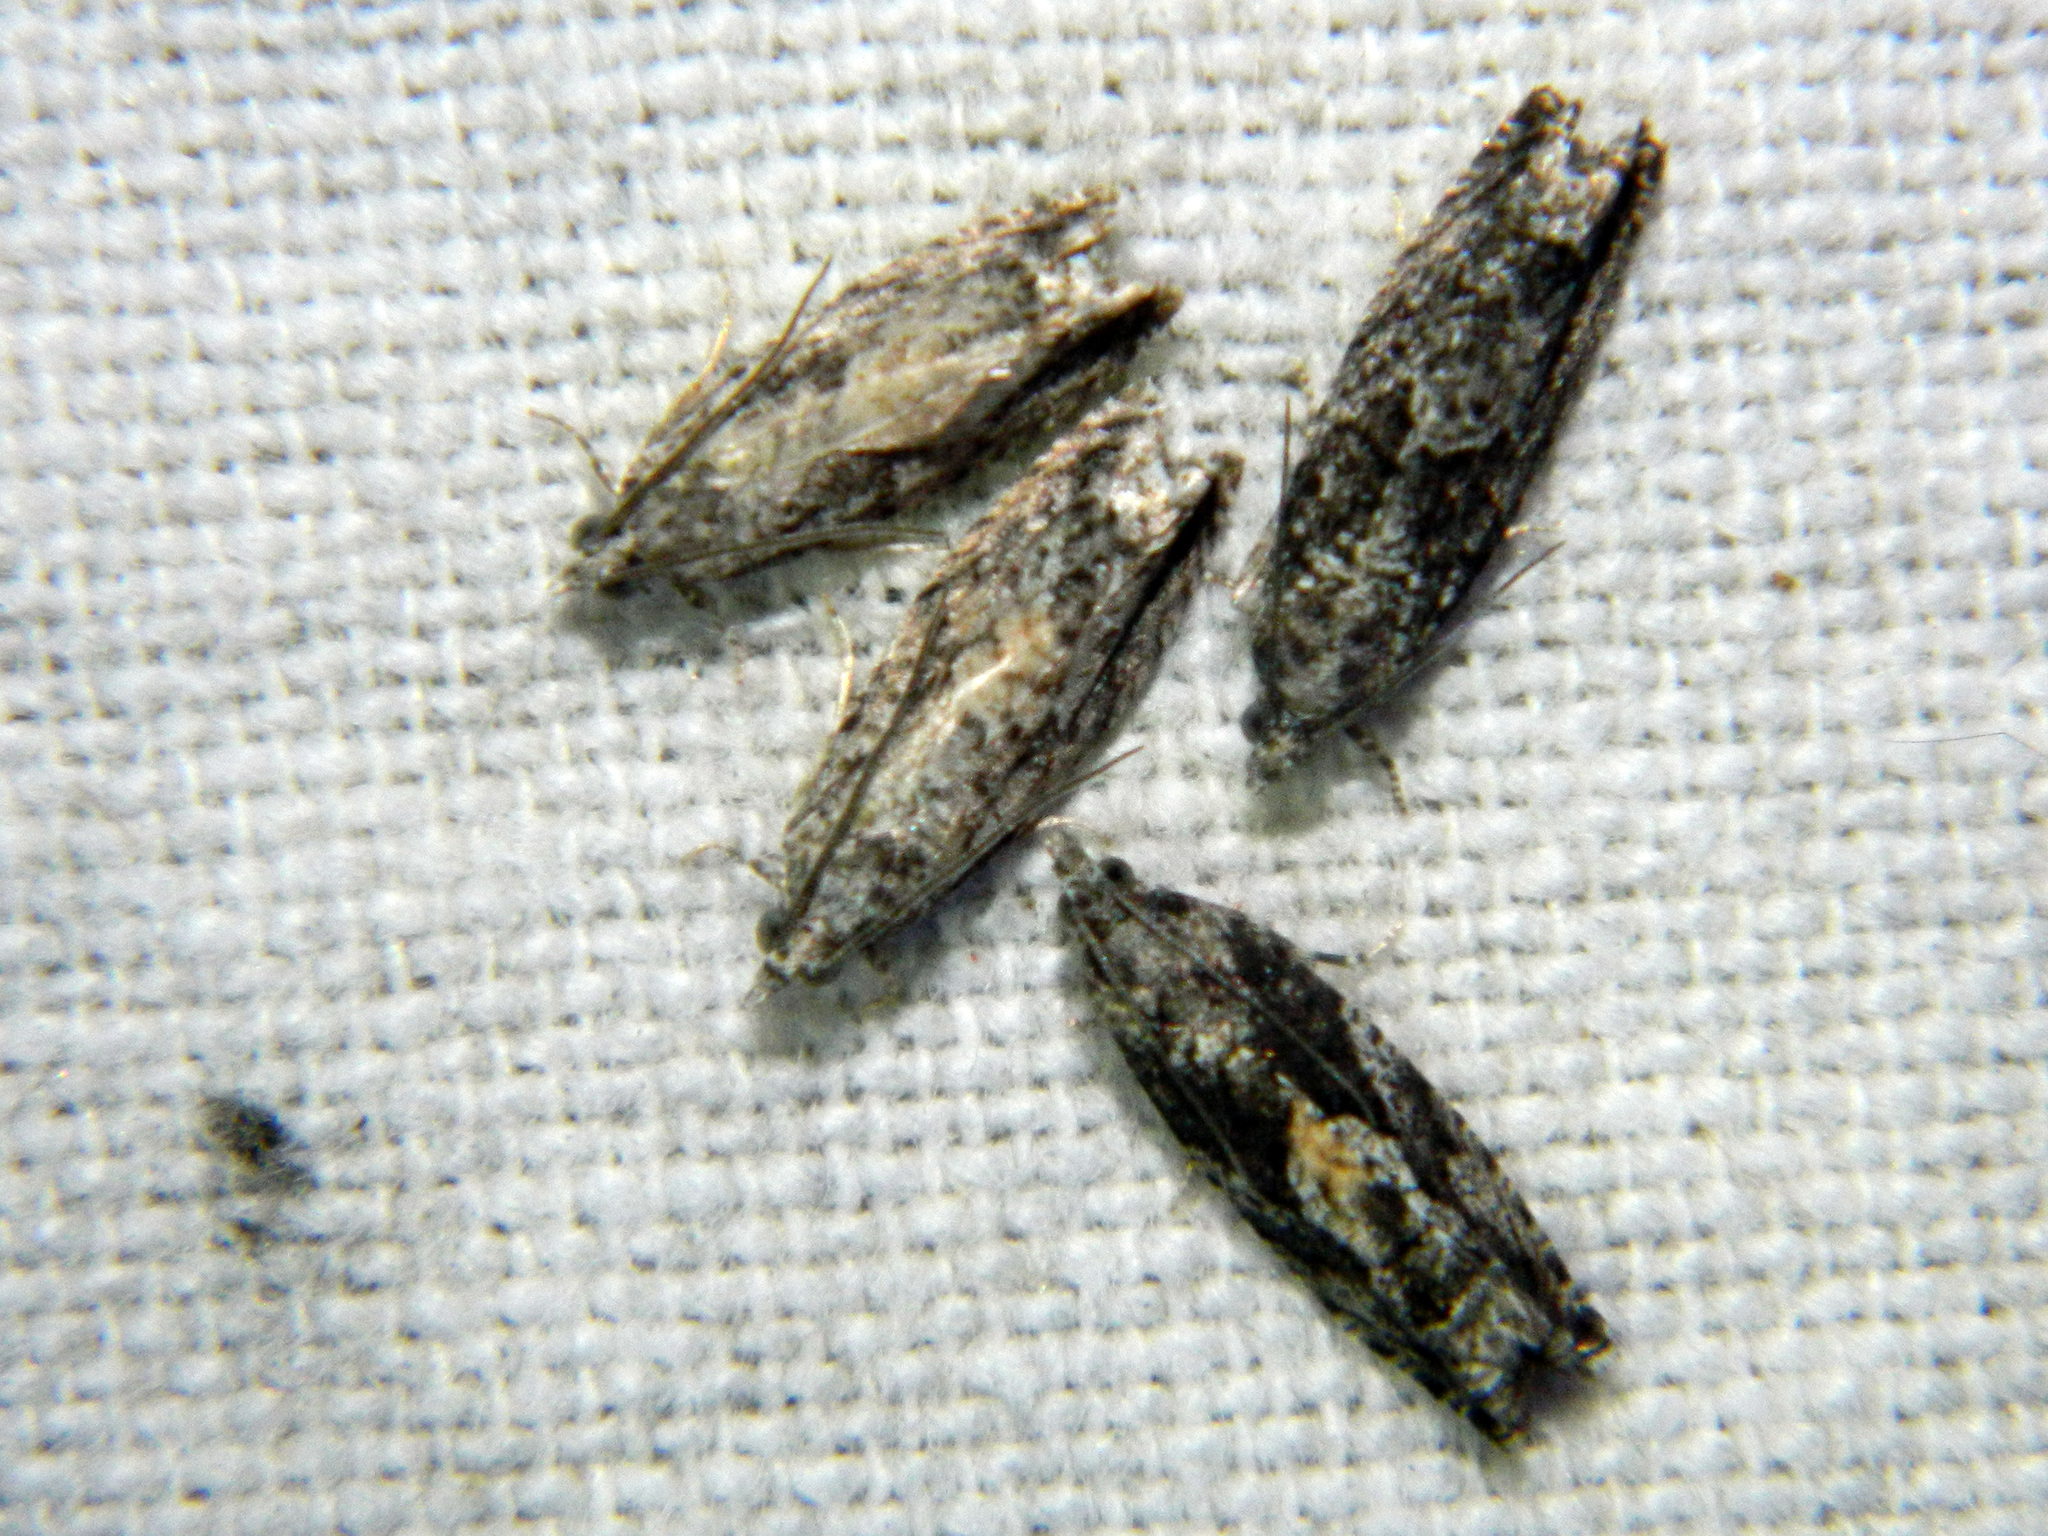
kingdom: Animalia
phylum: Arthropoda
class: Insecta
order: Lepidoptera
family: Tortricidae
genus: Epinotia
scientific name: Epinotia nisella
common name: Grey poplar bell
